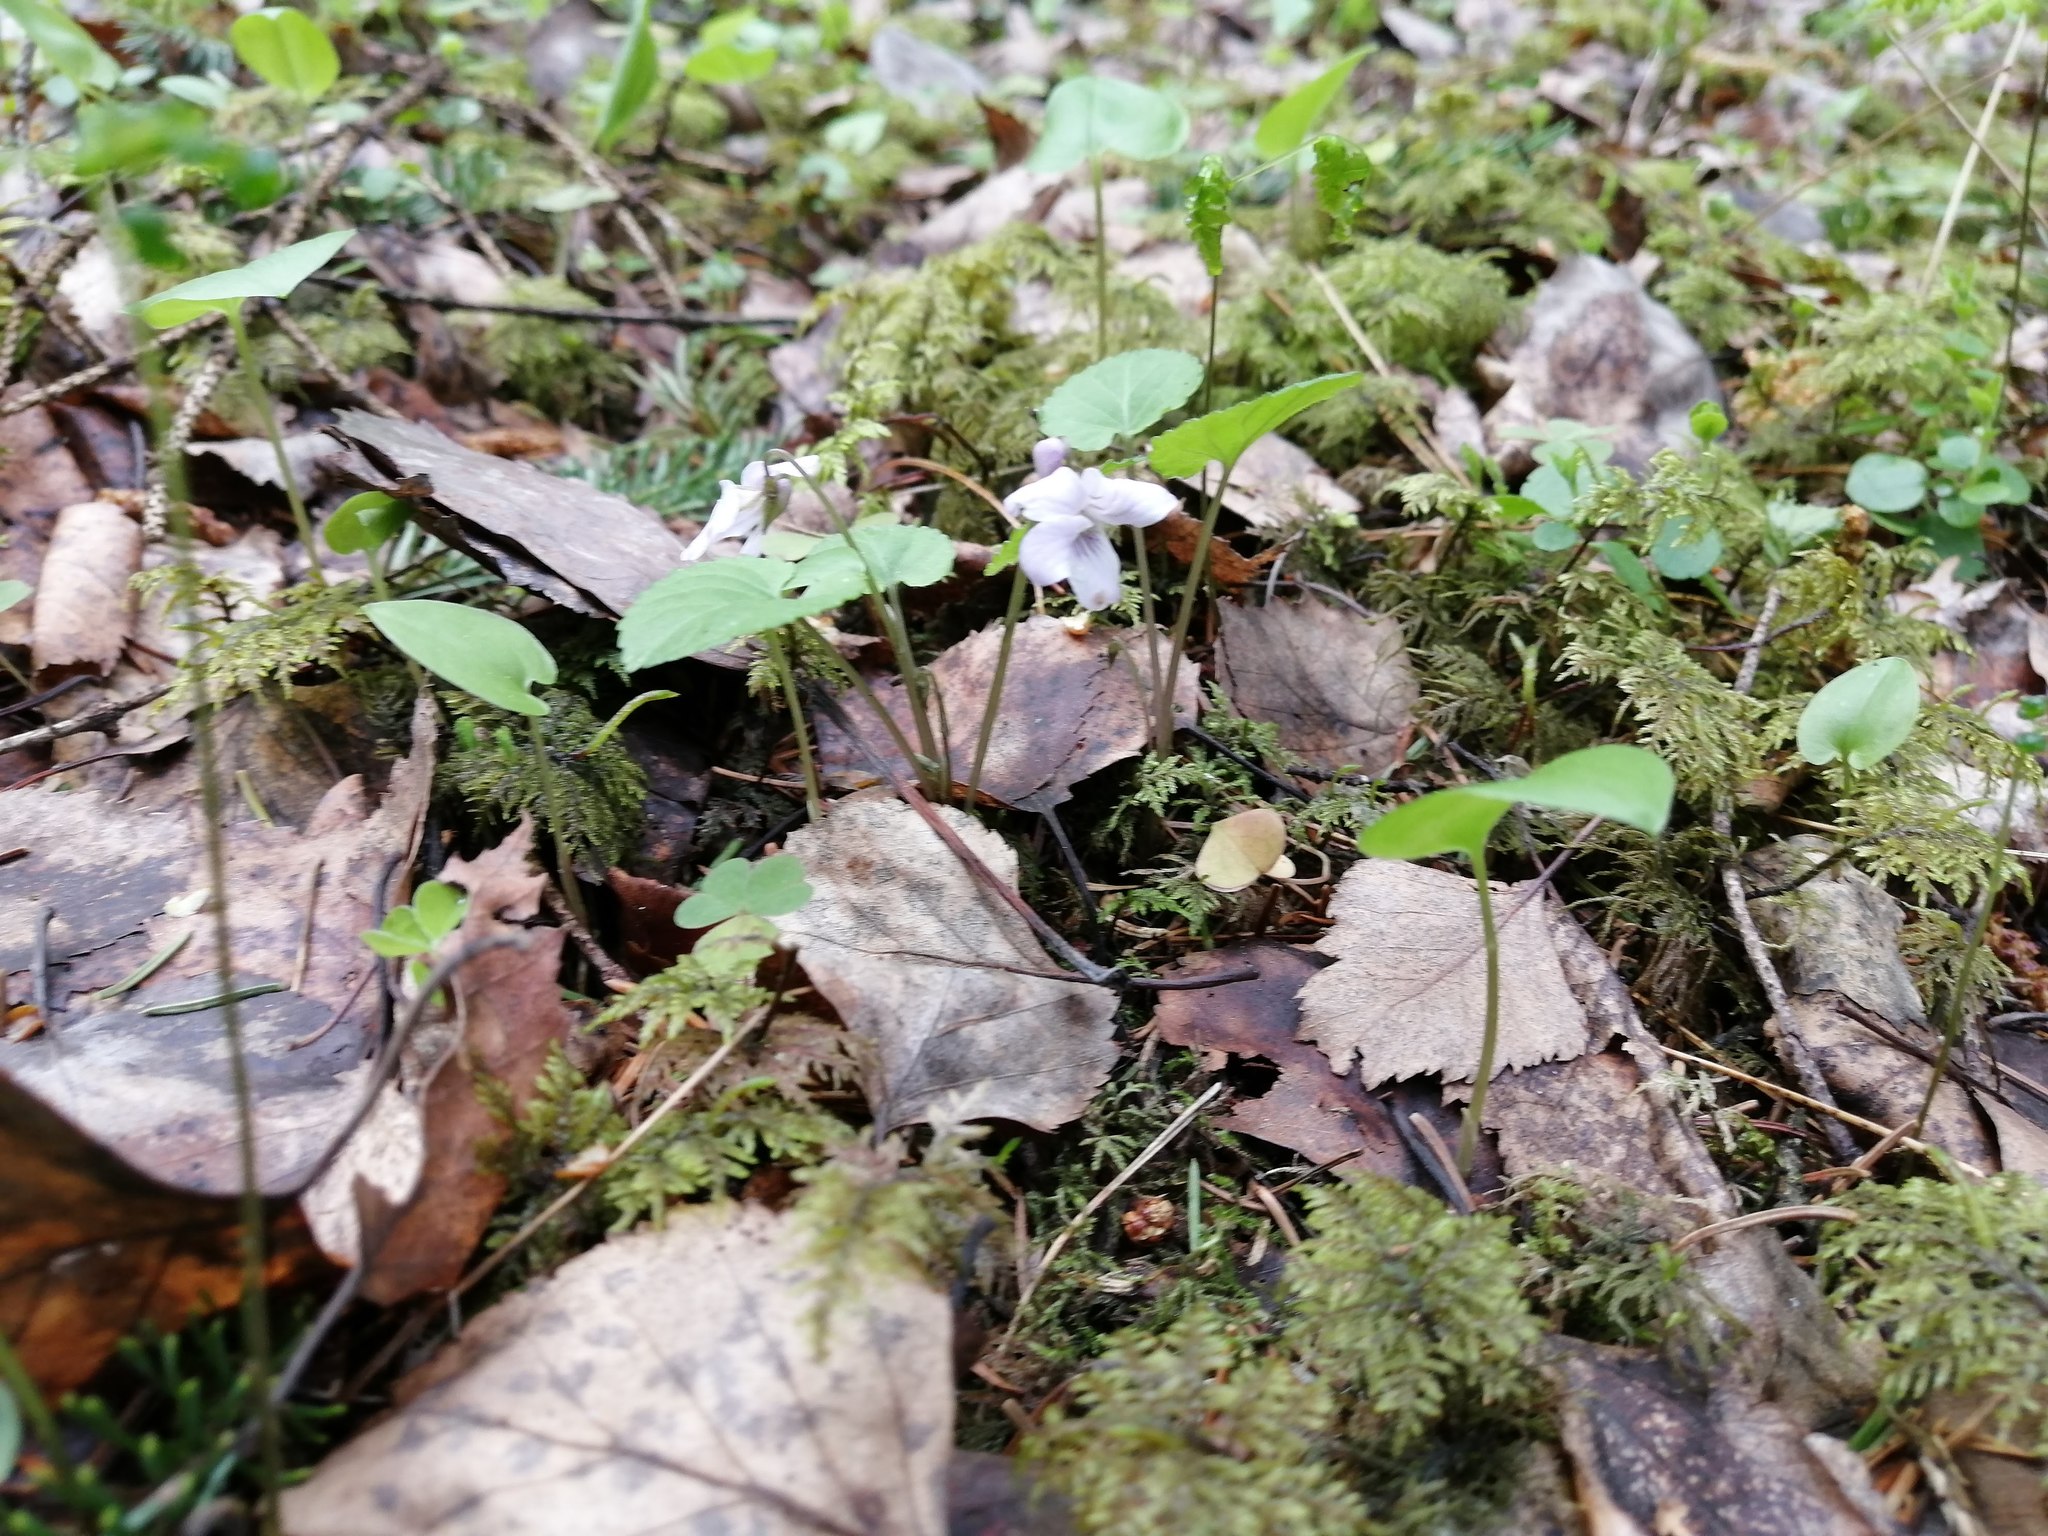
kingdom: Plantae
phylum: Tracheophyta
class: Magnoliopsida
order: Malpighiales
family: Violaceae
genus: Viola
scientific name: Viola selkirkii
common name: Selkirk's violet
